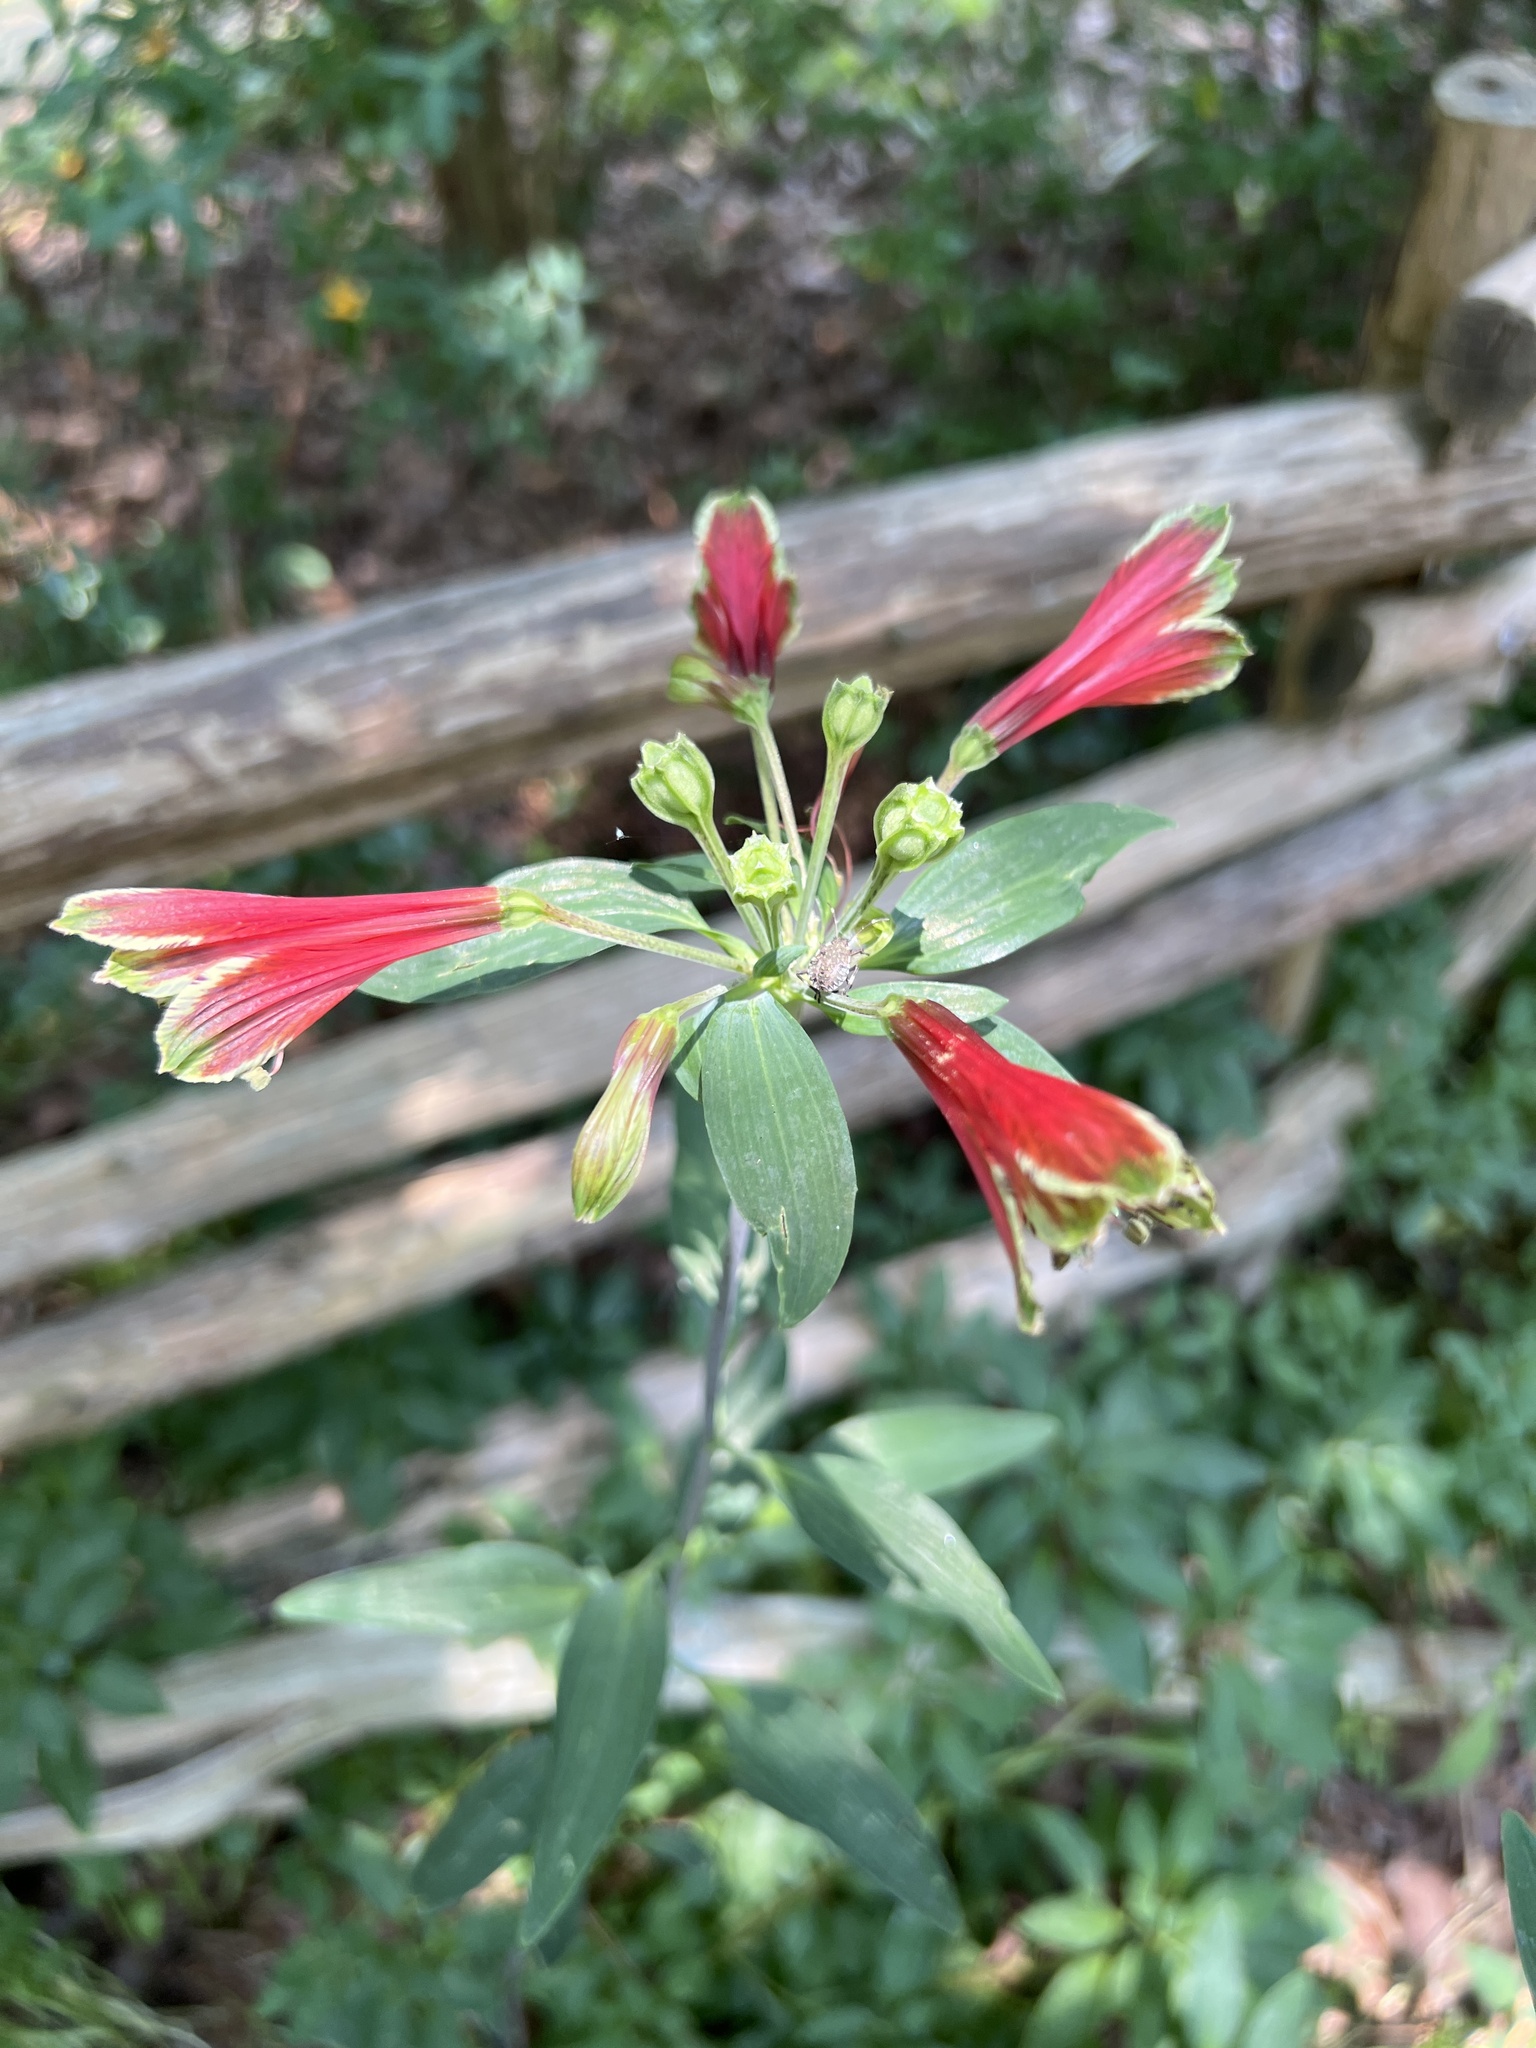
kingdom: Plantae
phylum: Tracheophyta
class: Liliopsida
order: Liliales
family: Alstroemeriaceae
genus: Alstroemeria
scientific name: Alstroemeria psittacina
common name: Peruvian-lily
